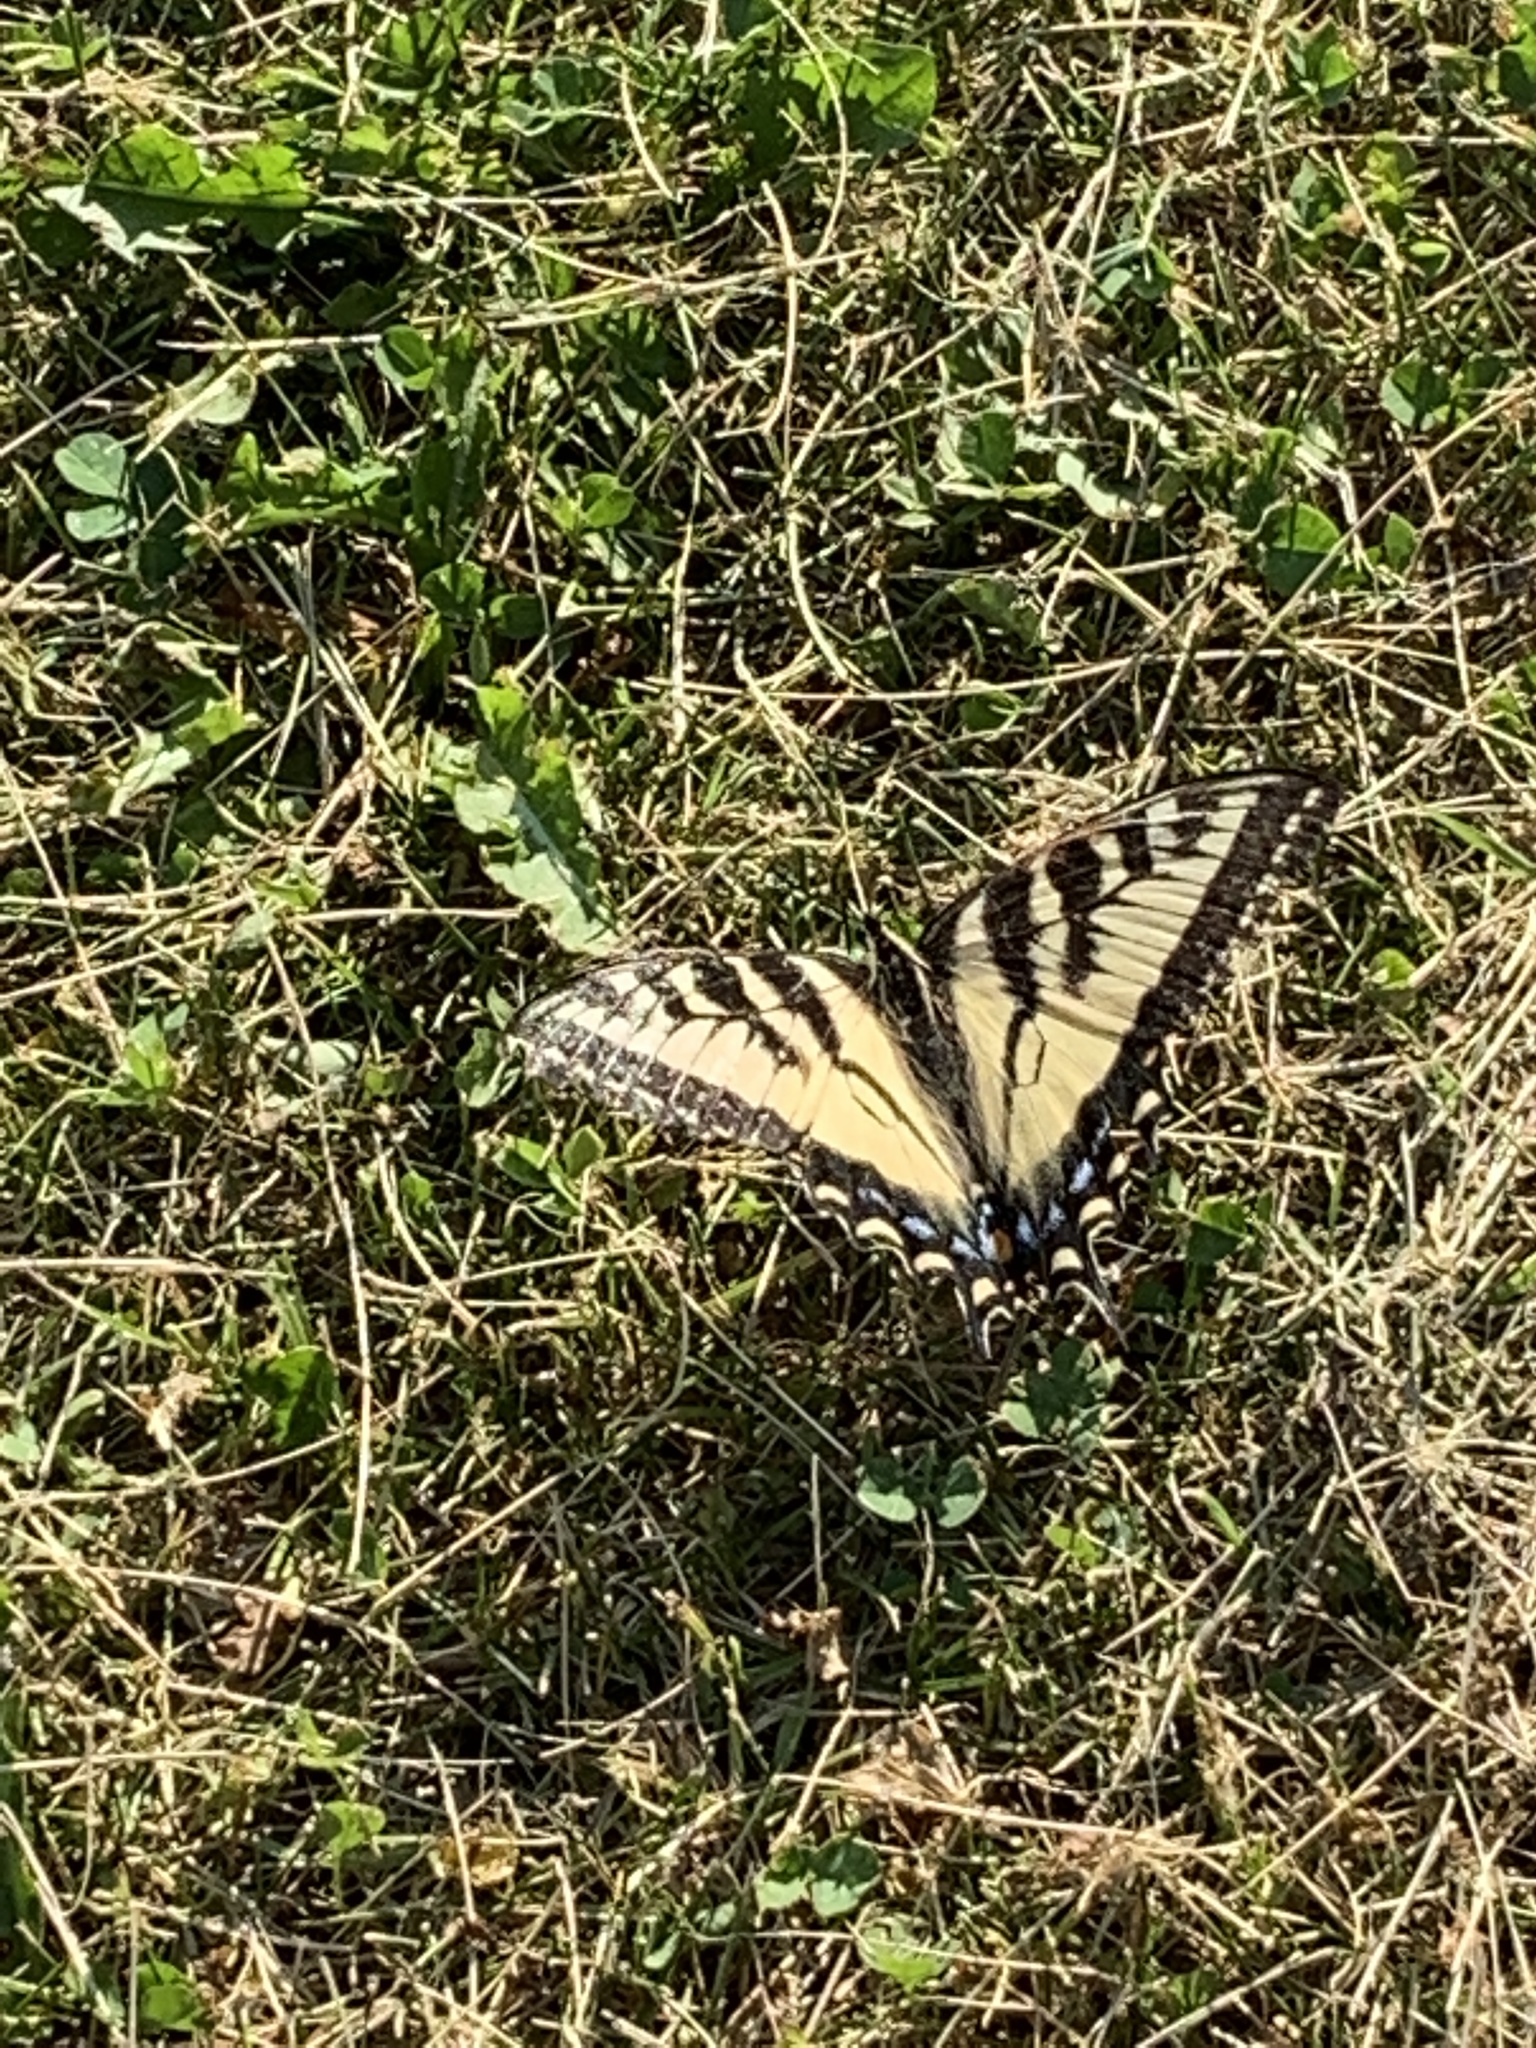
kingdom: Animalia
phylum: Arthropoda
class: Insecta
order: Lepidoptera
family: Papilionidae
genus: Papilio
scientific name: Papilio canadensis
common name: Canadian tiger swallowtail
